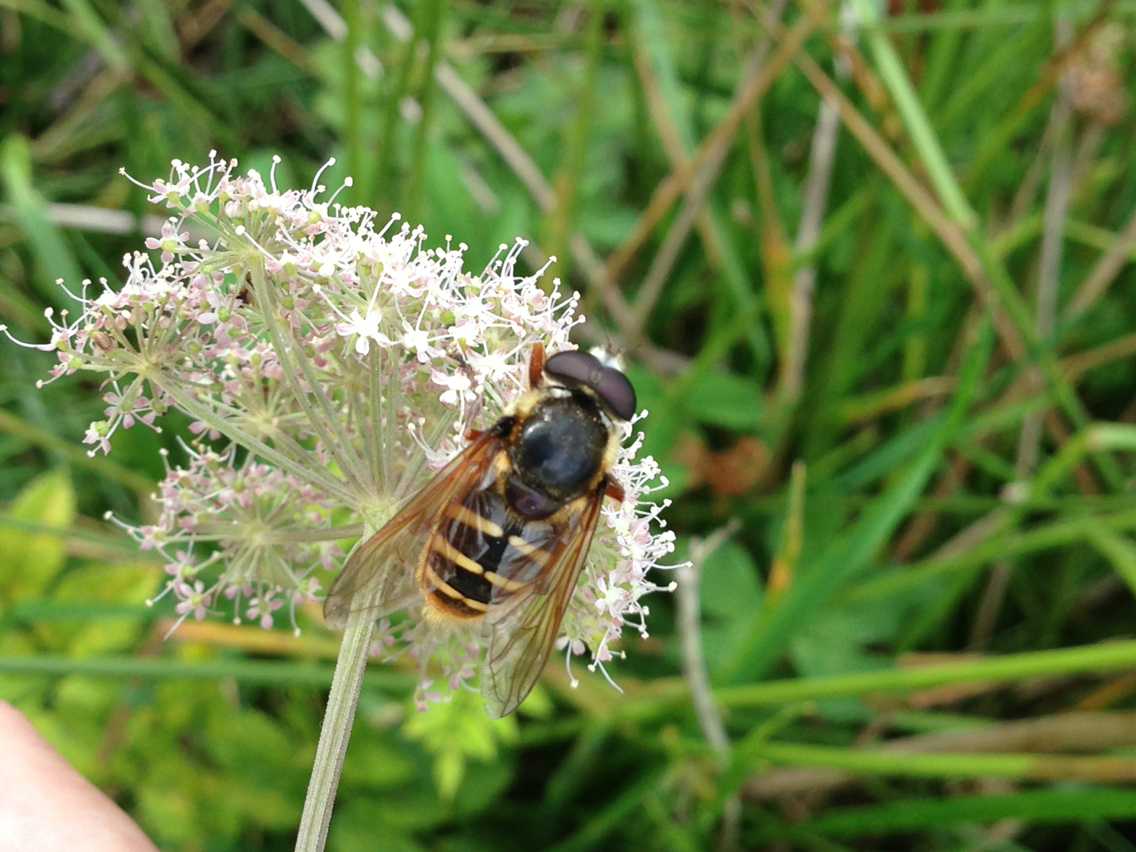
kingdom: Animalia
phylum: Arthropoda
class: Insecta
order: Diptera
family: Syrphidae
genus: Sericomyia
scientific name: Sericomyia silentis
